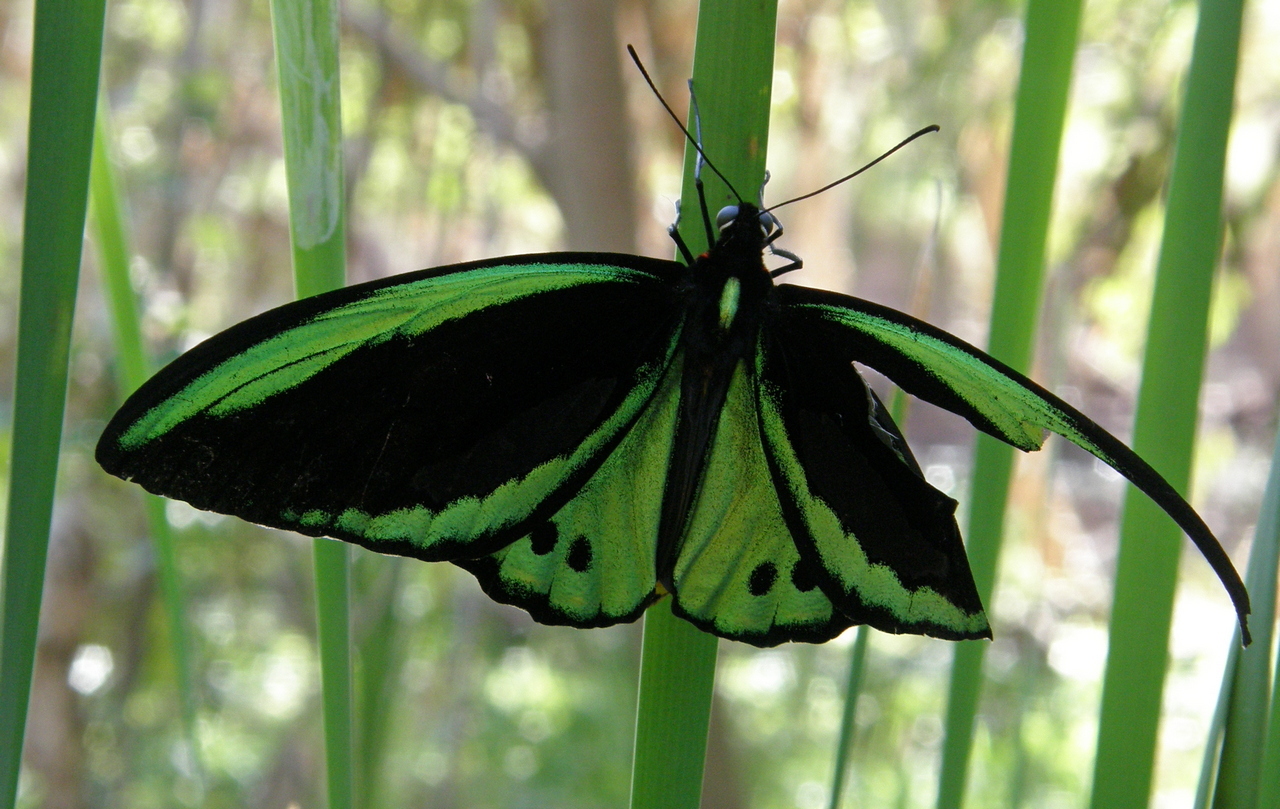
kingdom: Animalia
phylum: Arthropoda
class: Insecta
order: Lepidoptera
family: Papilionidae
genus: Ornithoptera
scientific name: Ornithoptera euphorion
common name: Cairns birdwing
